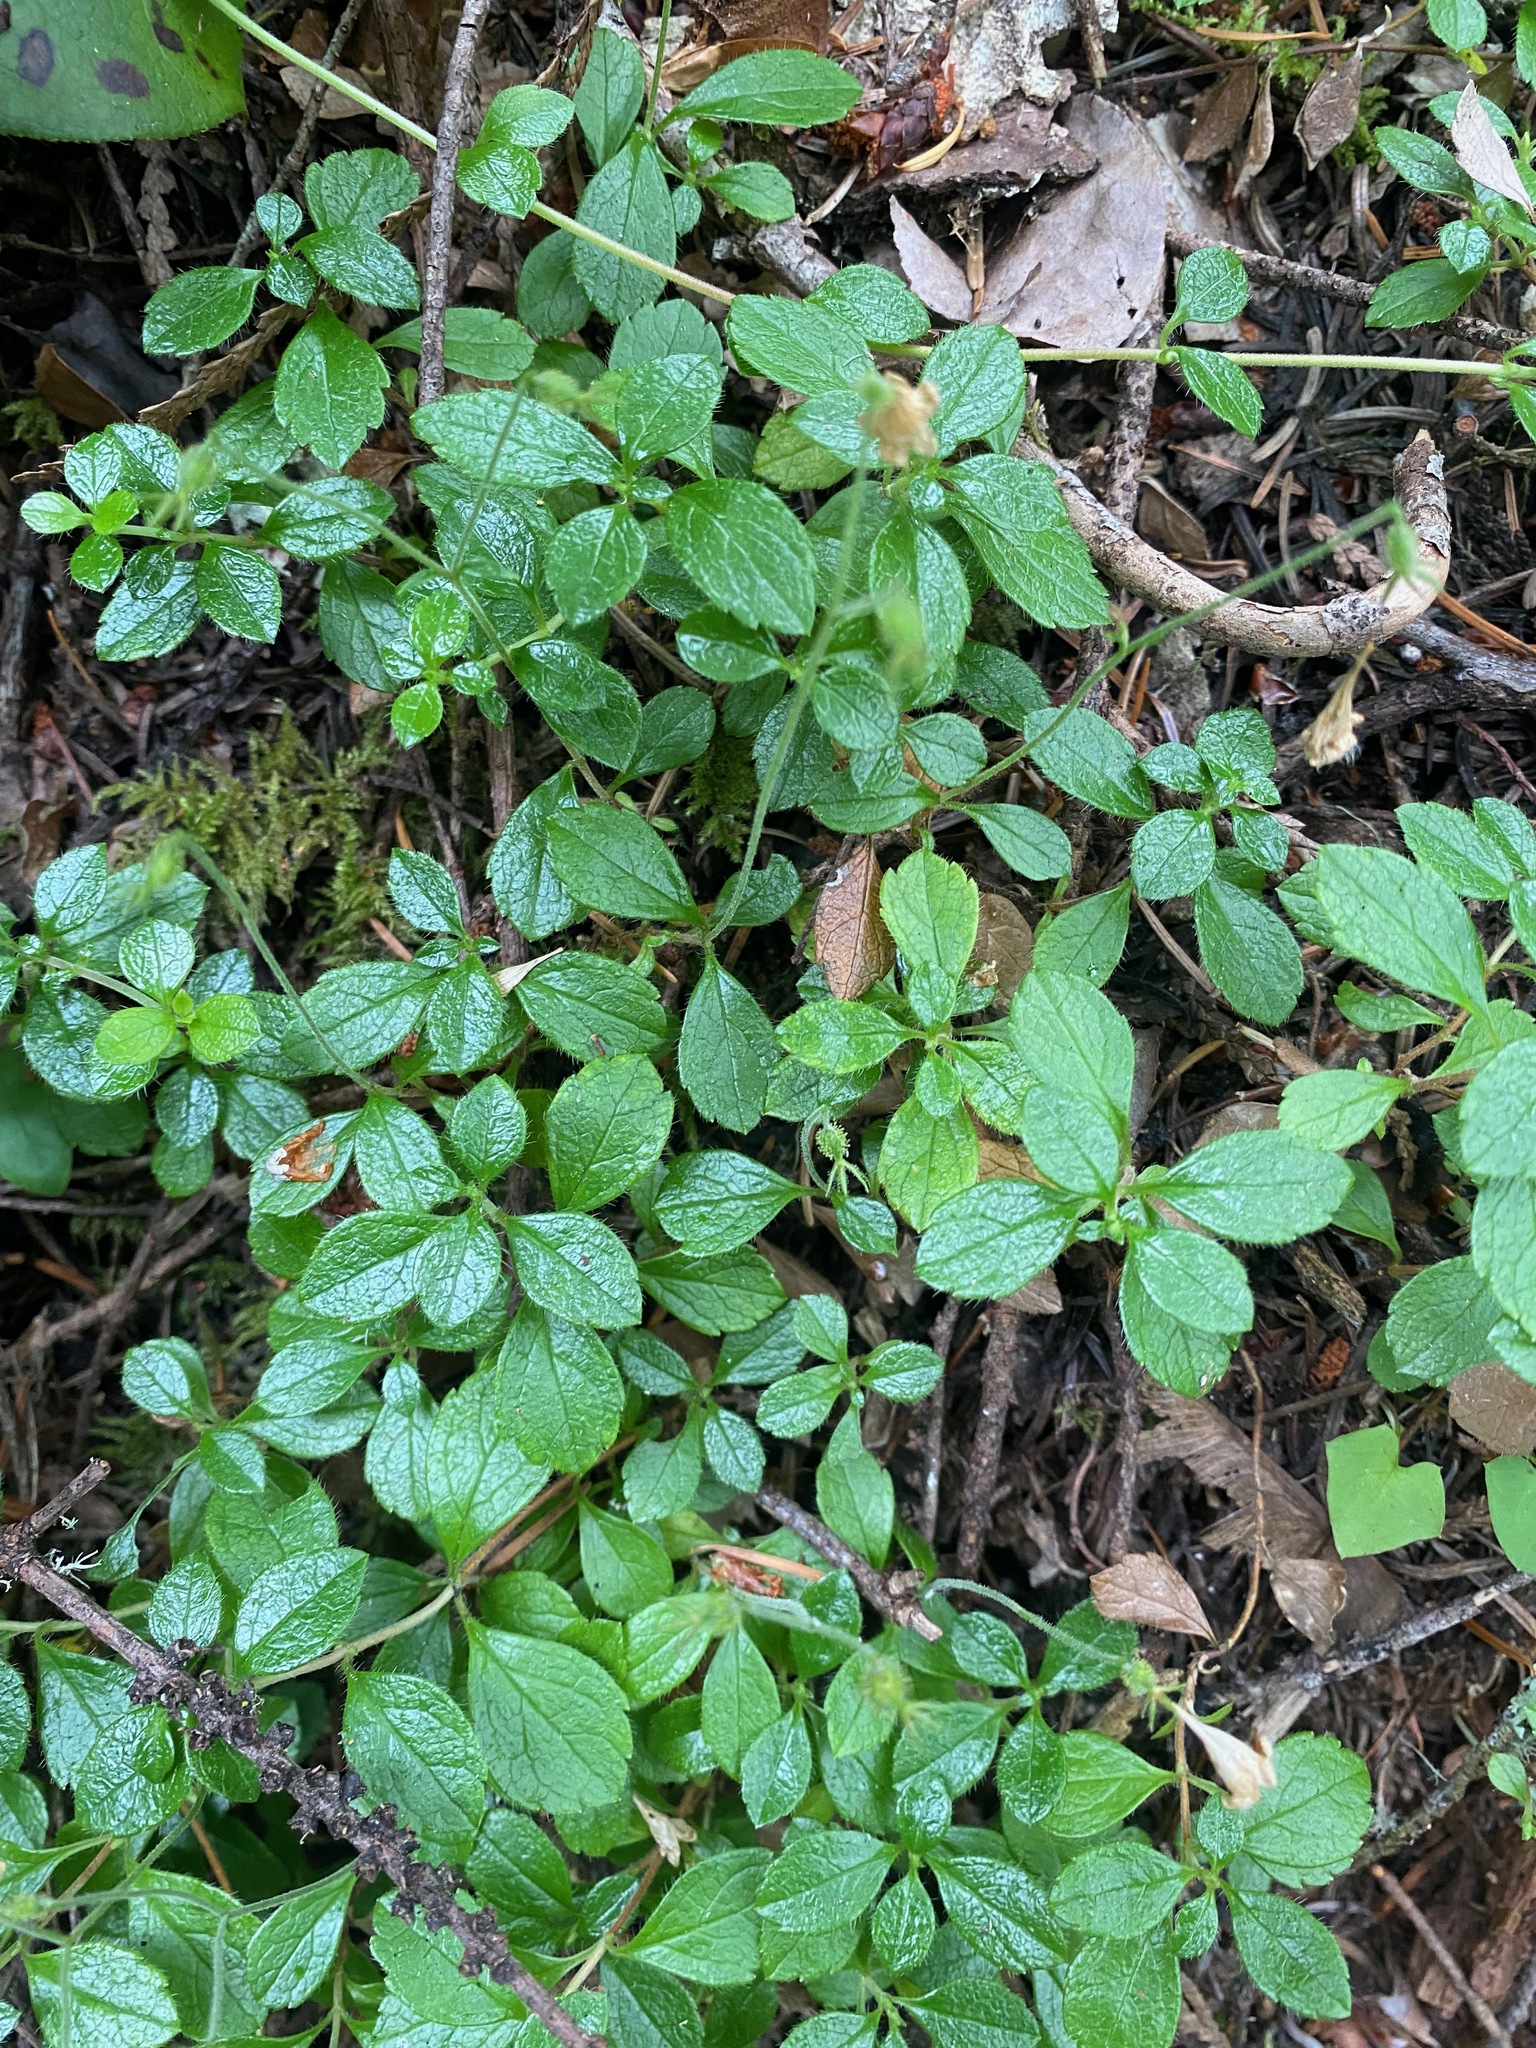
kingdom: Plantae
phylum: Tracheophyta
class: Magnoliopsida
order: Dipsacales
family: Caprifoliaceae
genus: Linnaea
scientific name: Linnaea borealis
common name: Twinflower
